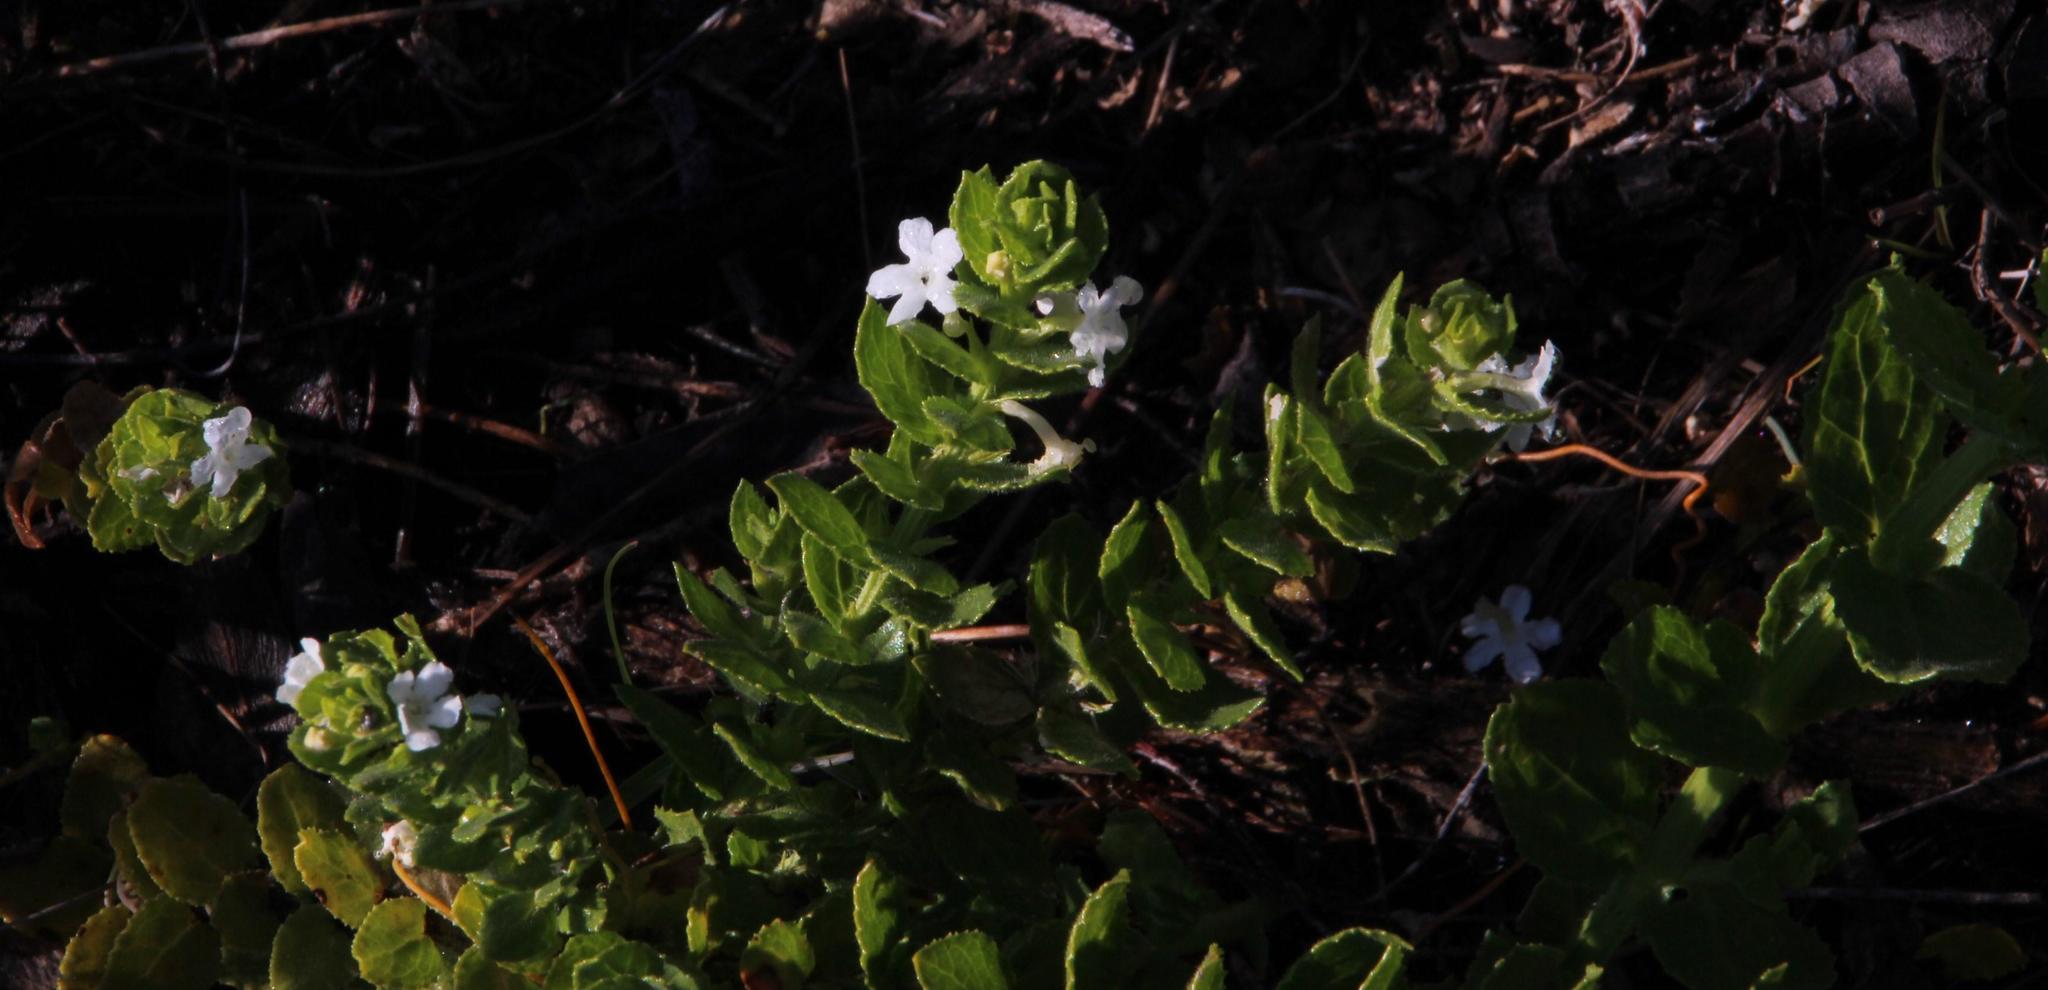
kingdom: Plantae
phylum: Tracheophyta
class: Magnoliopsida
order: Lamiales
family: Scrophulariaceae
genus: Oftia
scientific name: Oftia africana
